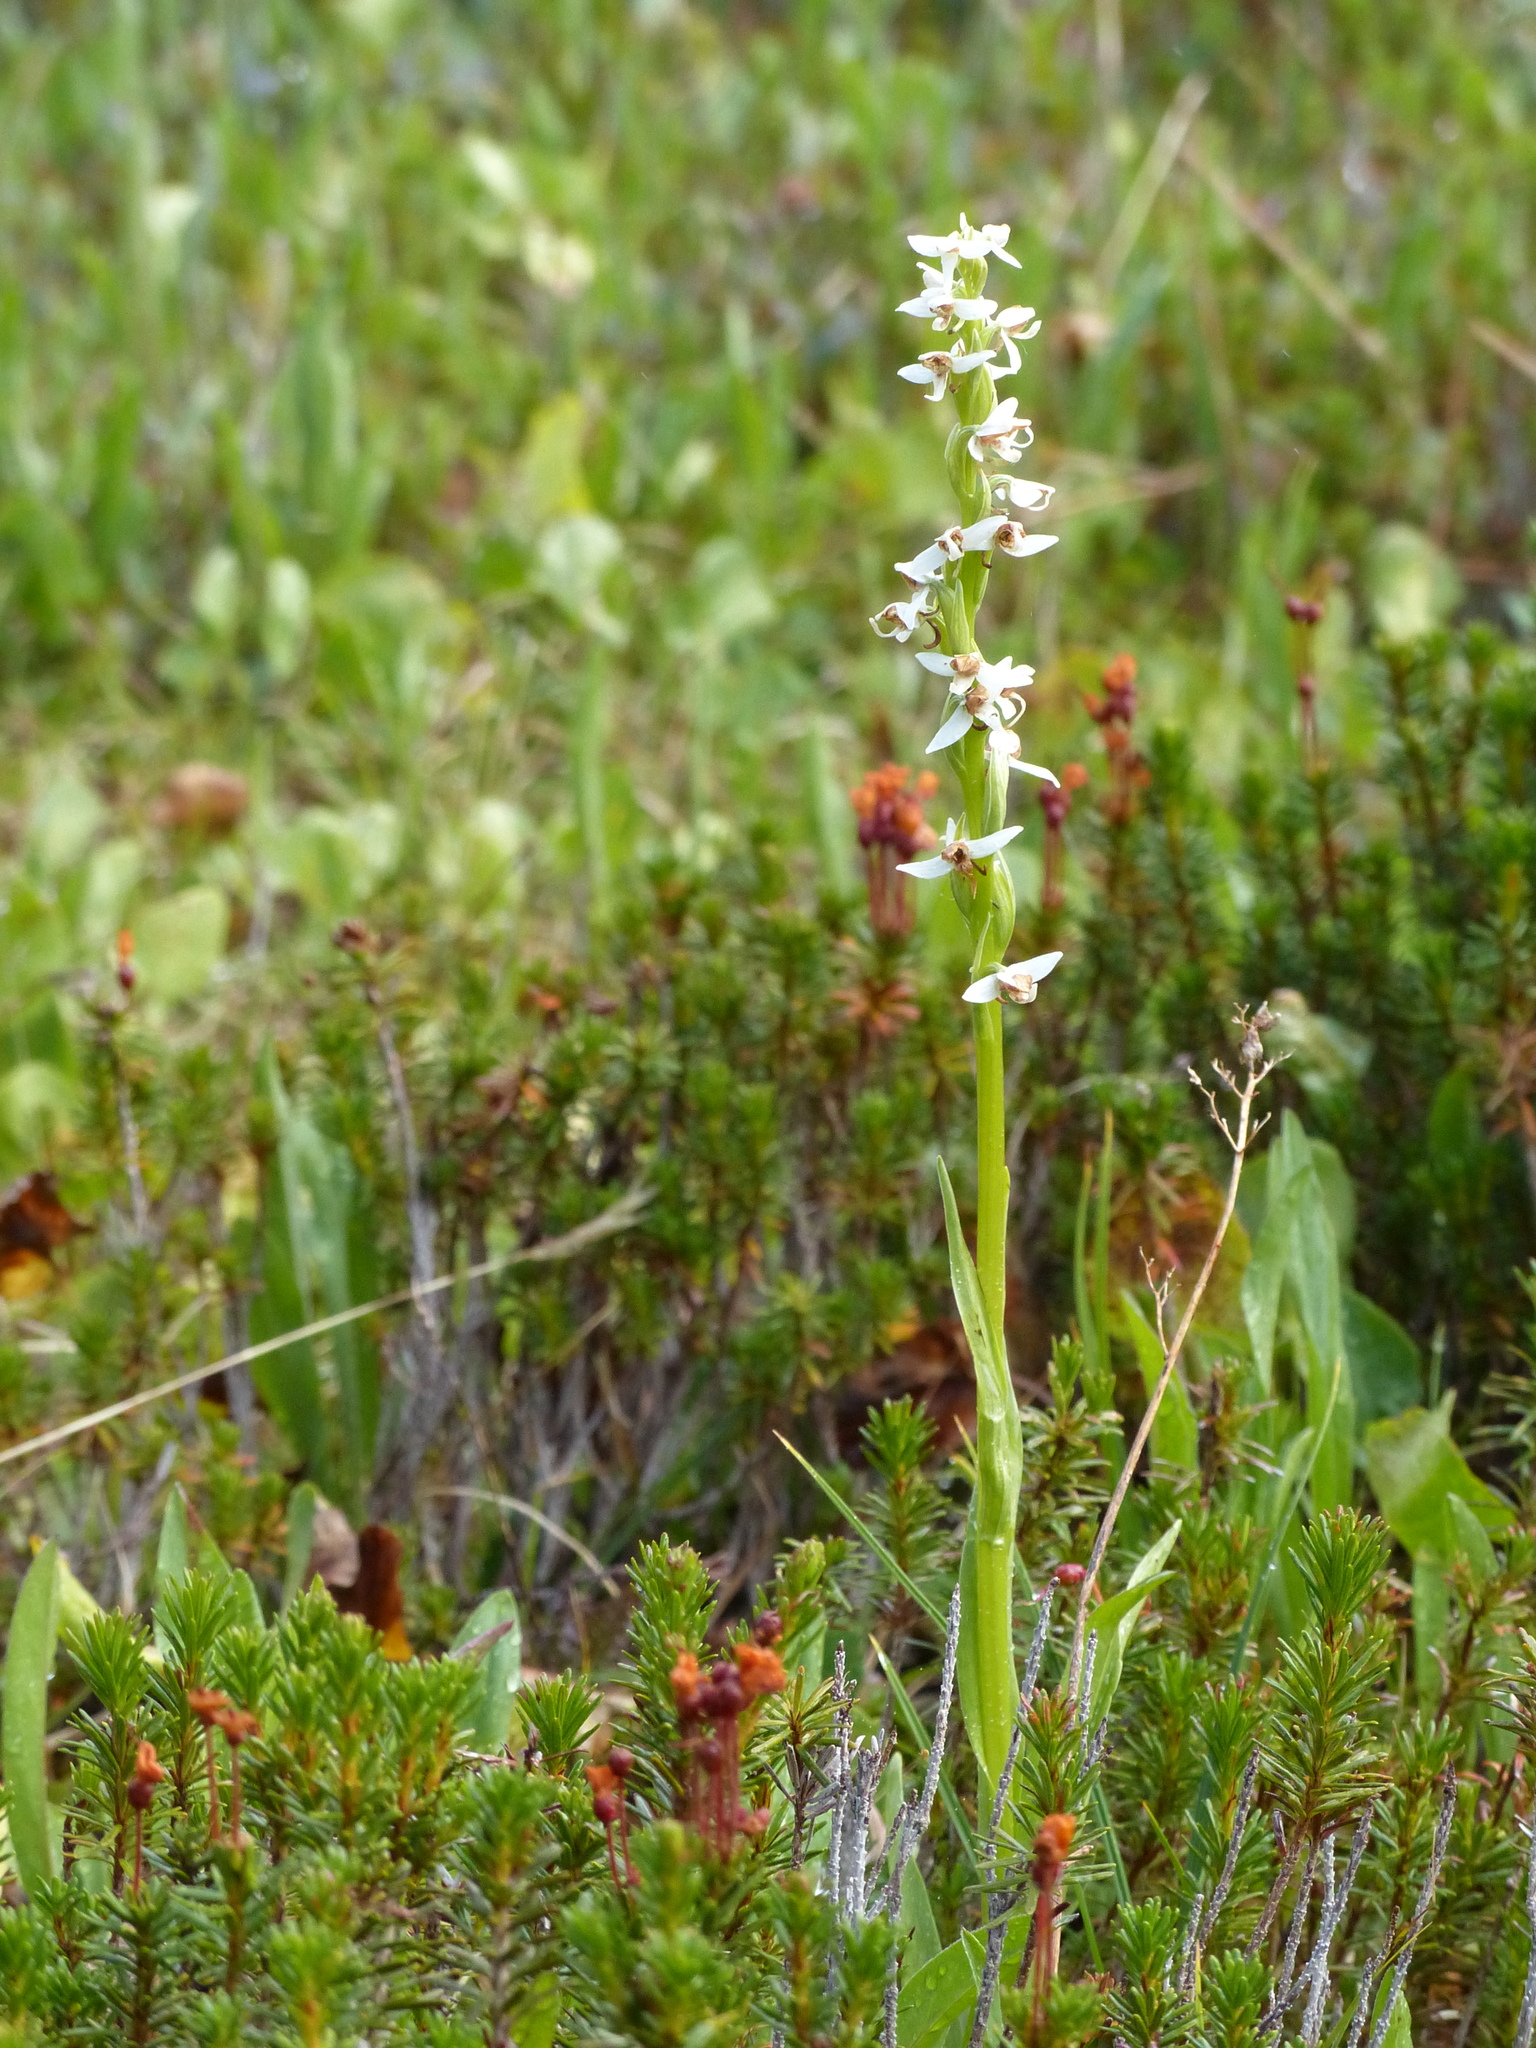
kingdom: Plantae
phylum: Tracheophyta
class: Liliopsida
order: Asparagales
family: Orchidaceae
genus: Platanthera
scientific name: Platanthera dilatata
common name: Bog candles
